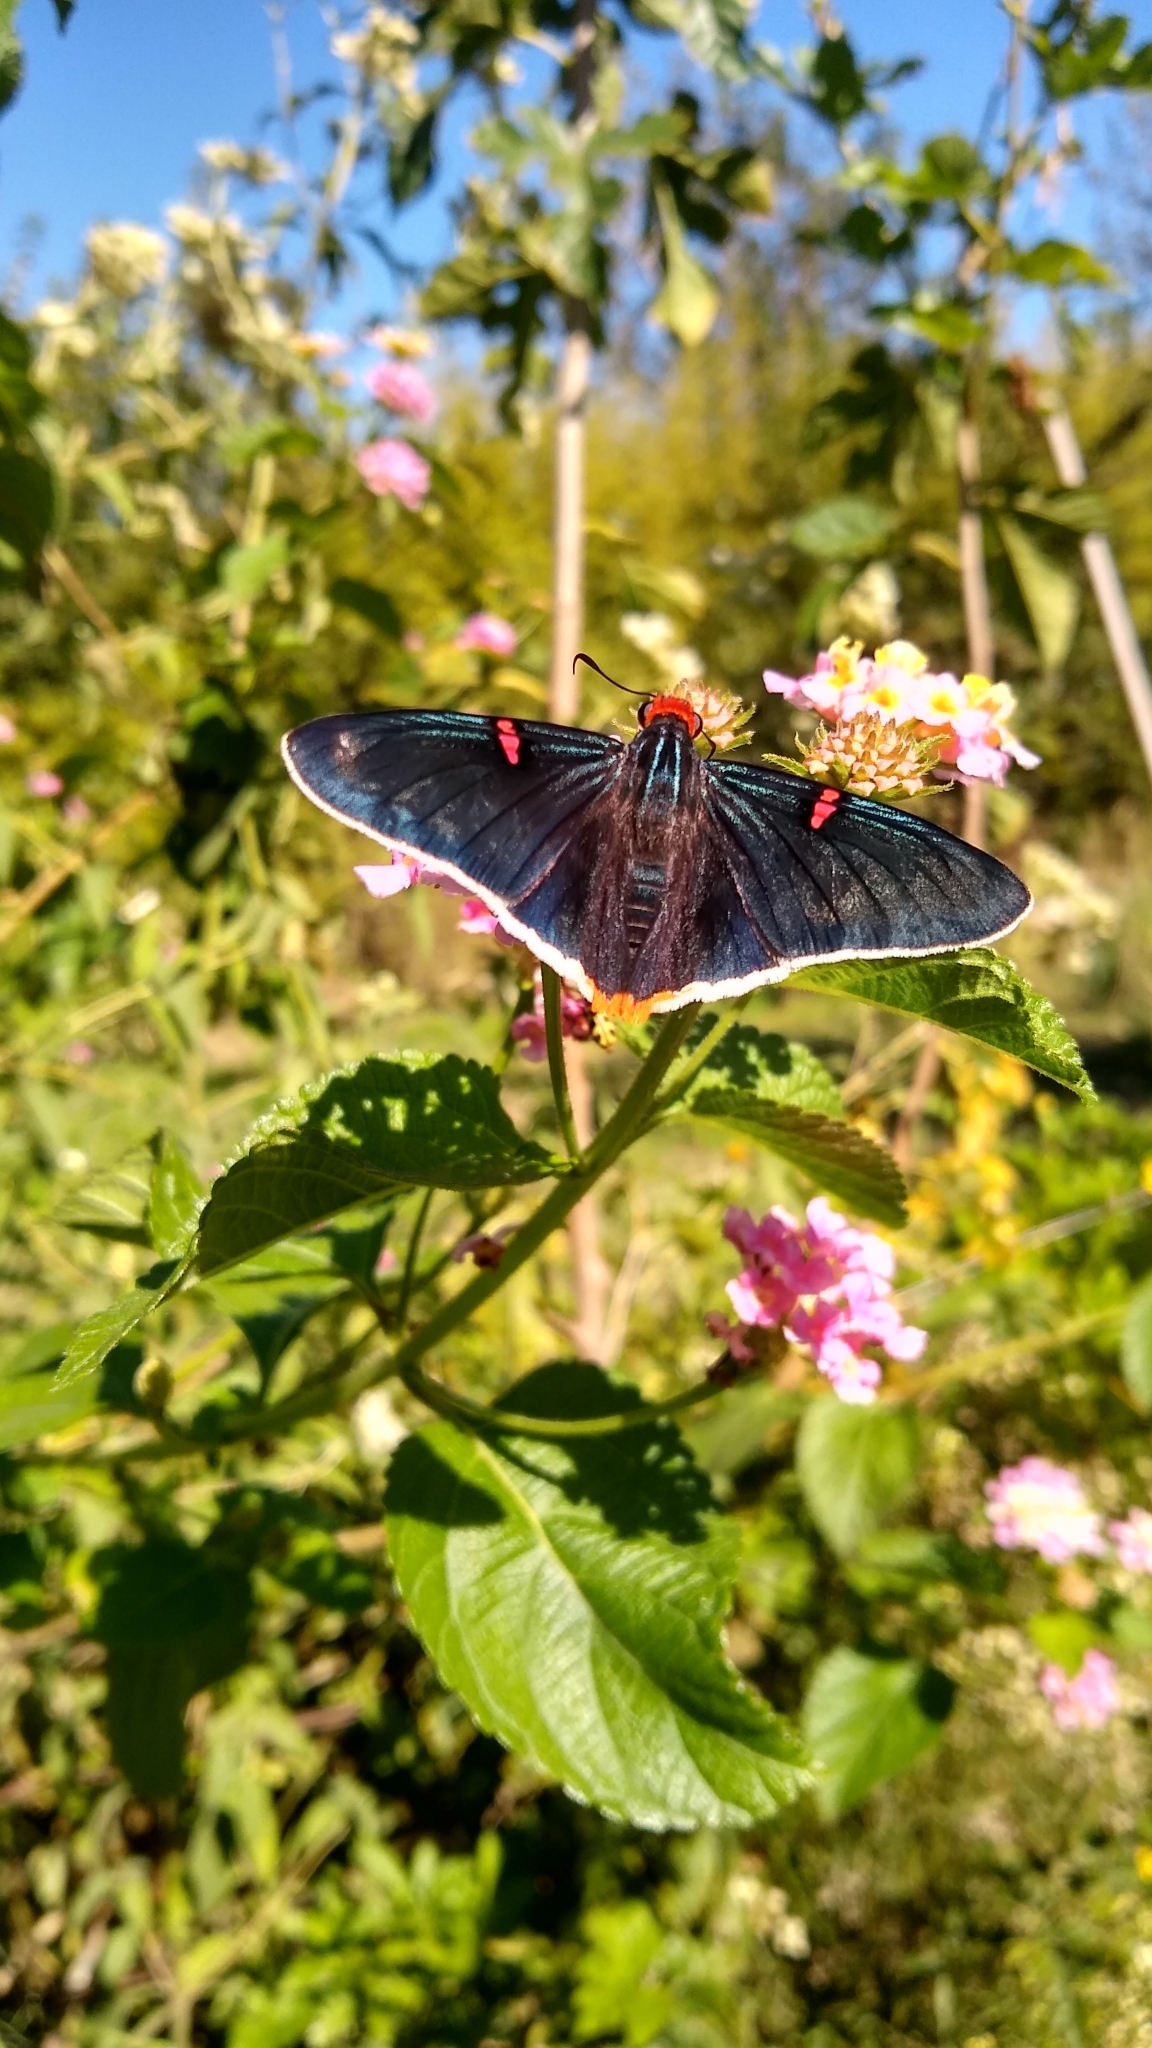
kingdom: Animalia
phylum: Arthropoda
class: Insecta
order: Lepidoptera
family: Hesperiidae
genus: Phocides
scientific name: Phocides polybius
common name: Guava skipper
